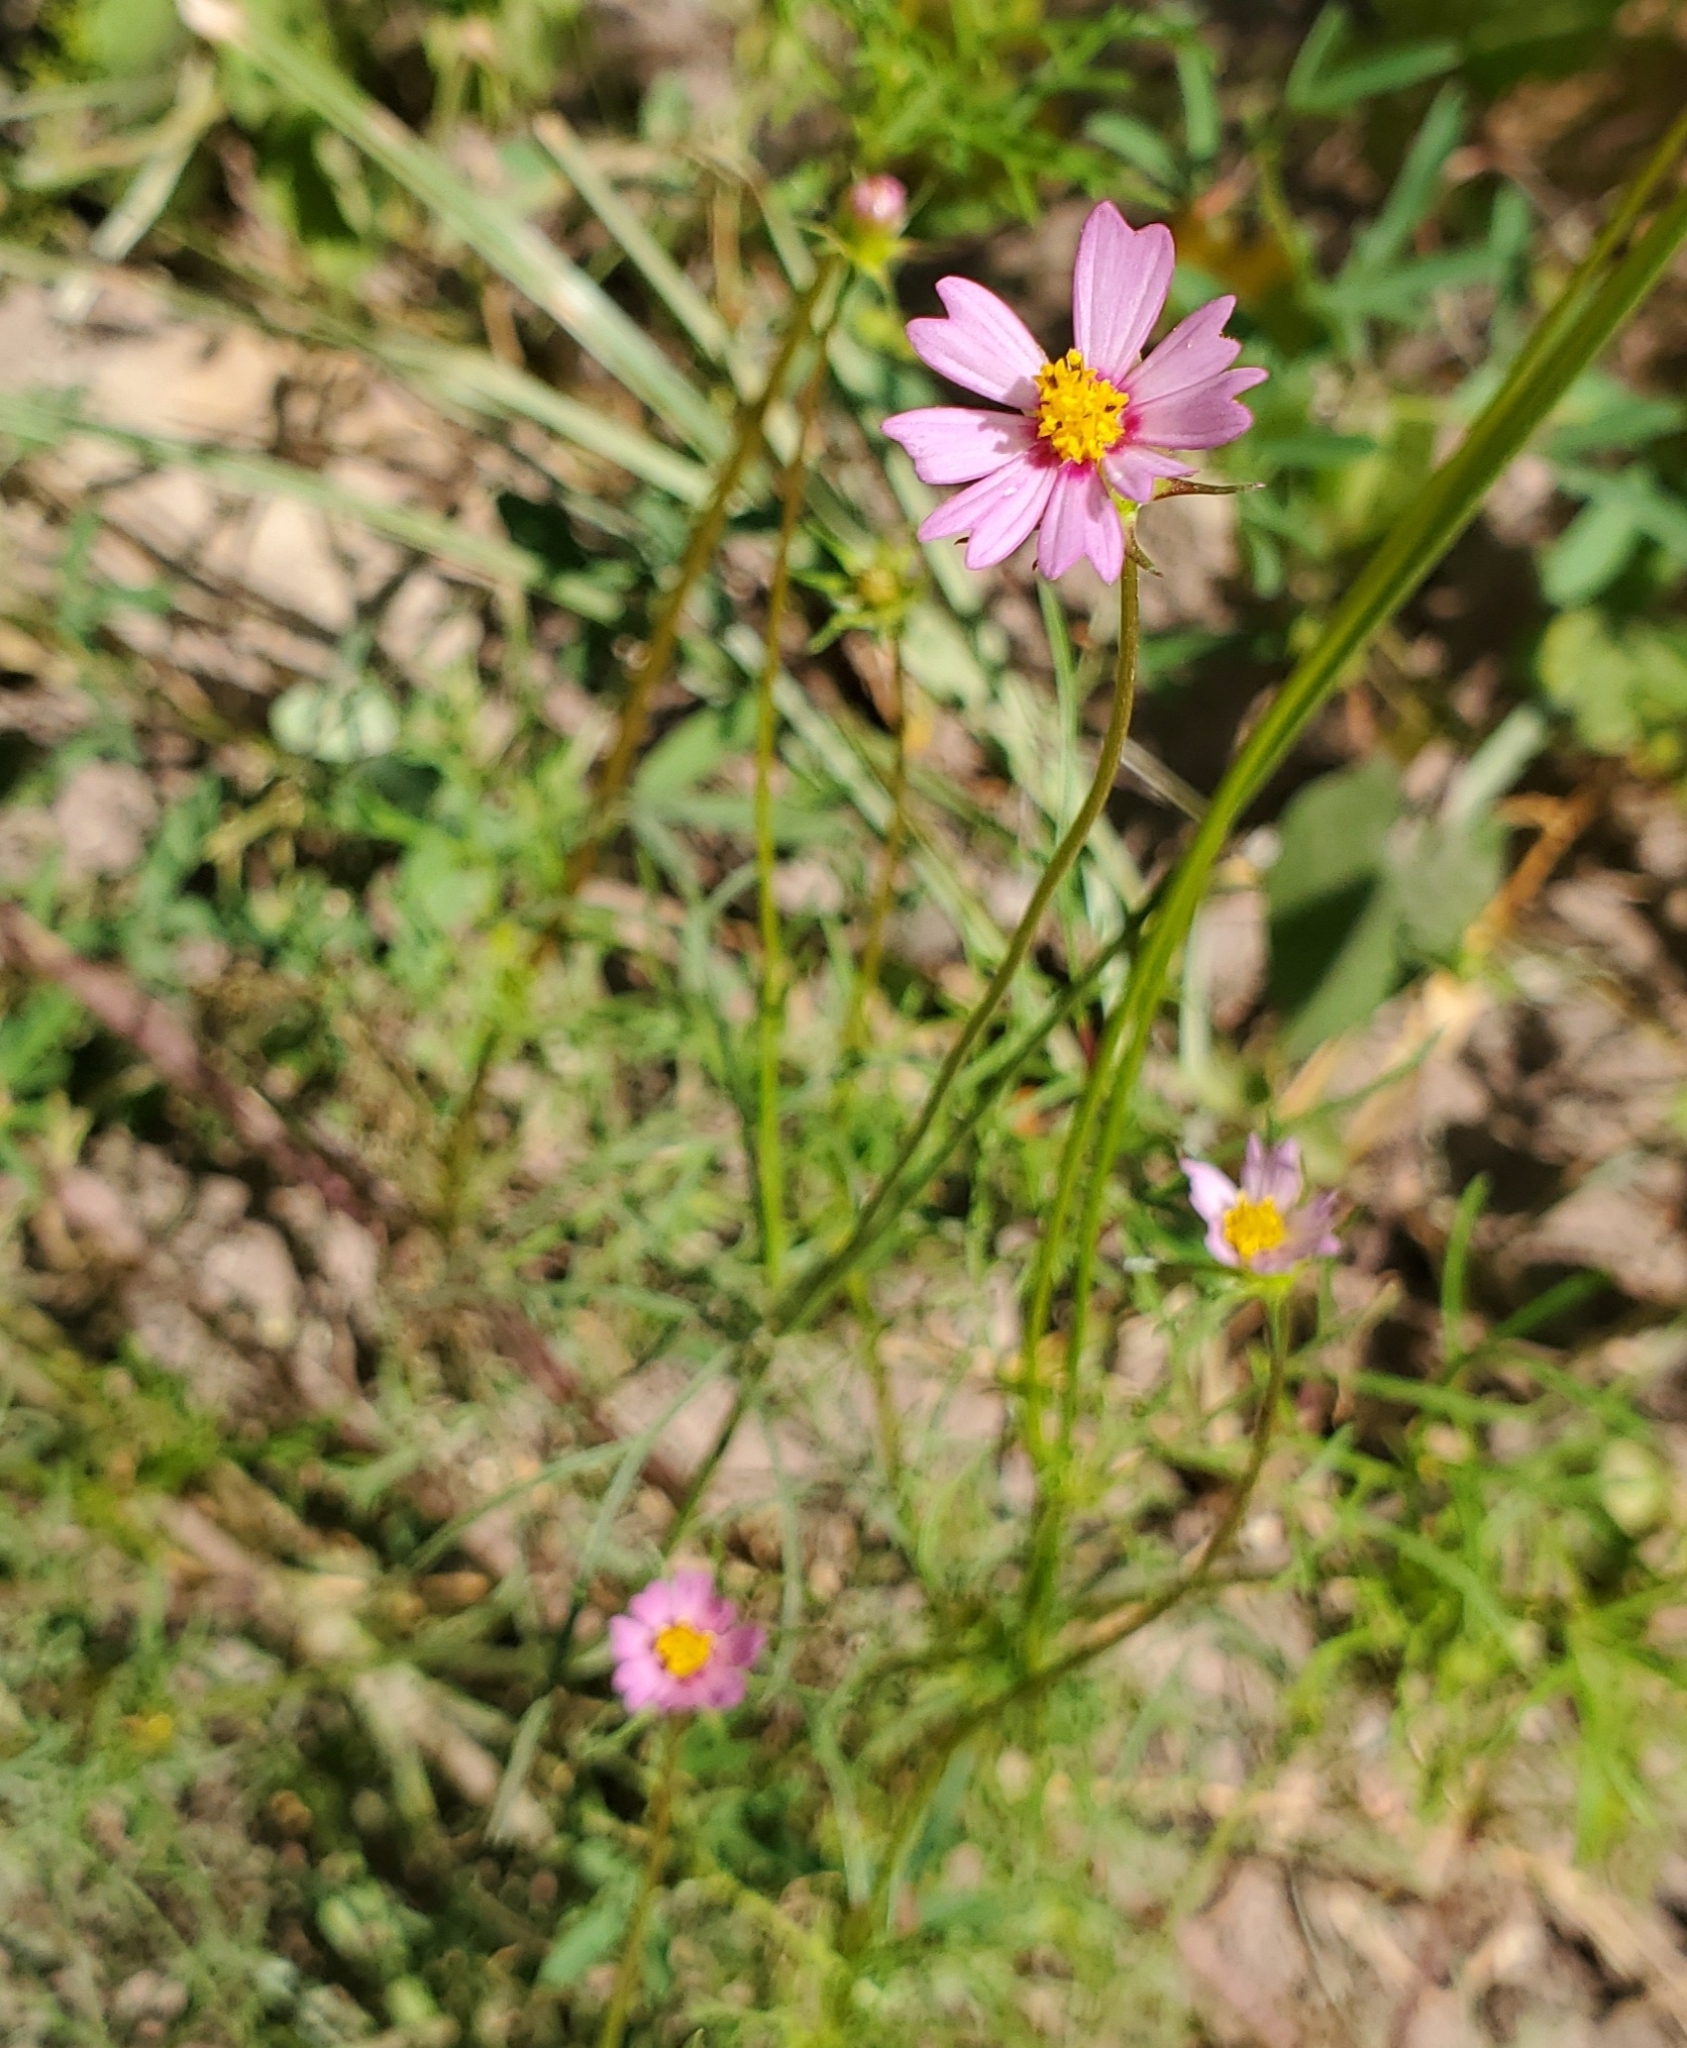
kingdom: Plantae
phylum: Tracheophyta
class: Magnoliopsida
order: Asterales
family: Asteraceae
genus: Cosmos
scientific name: Cosmos parviflorus
